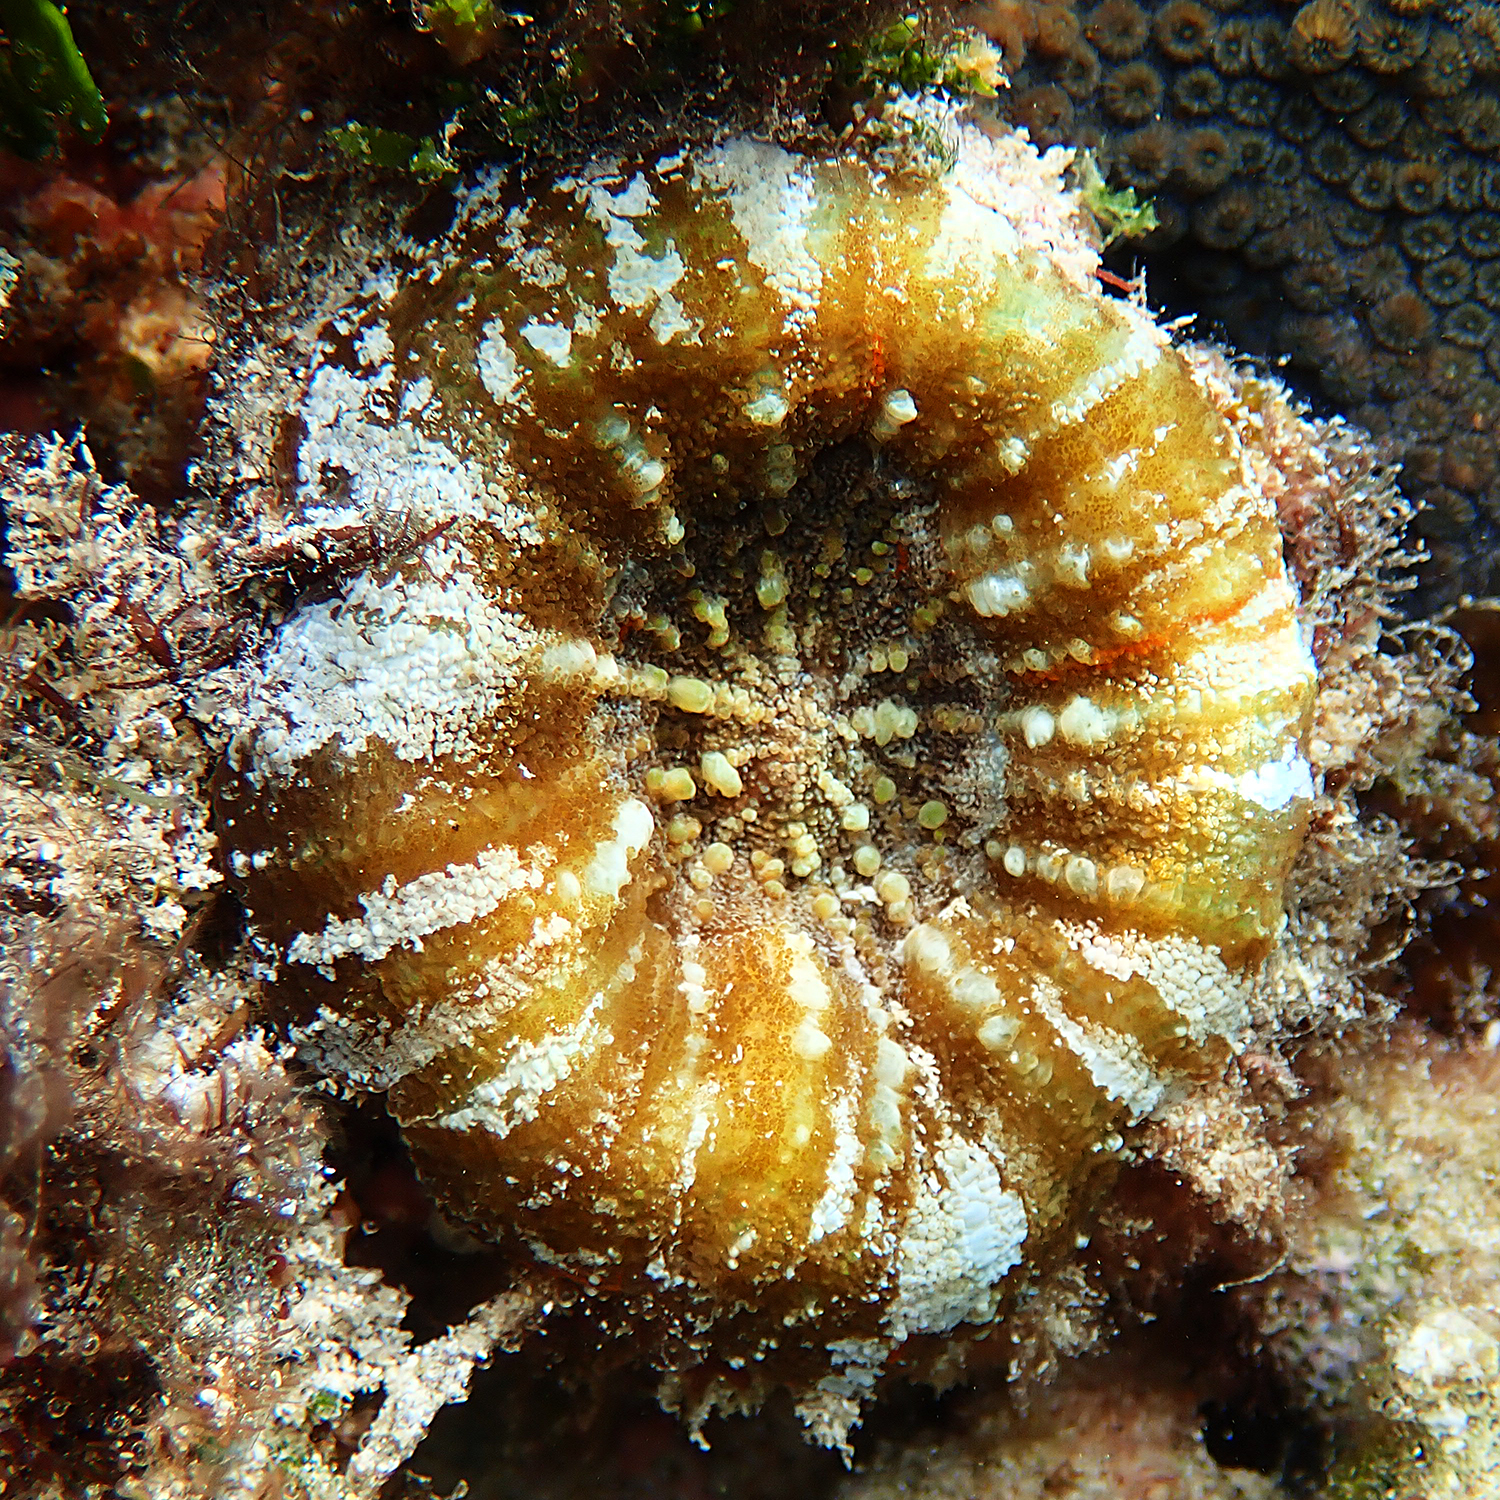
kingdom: Animalia
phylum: Cnidaria
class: Anthozoa
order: Scleractinia
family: Lobophylliidae
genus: Homophyllia
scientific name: Homophyllia australis
